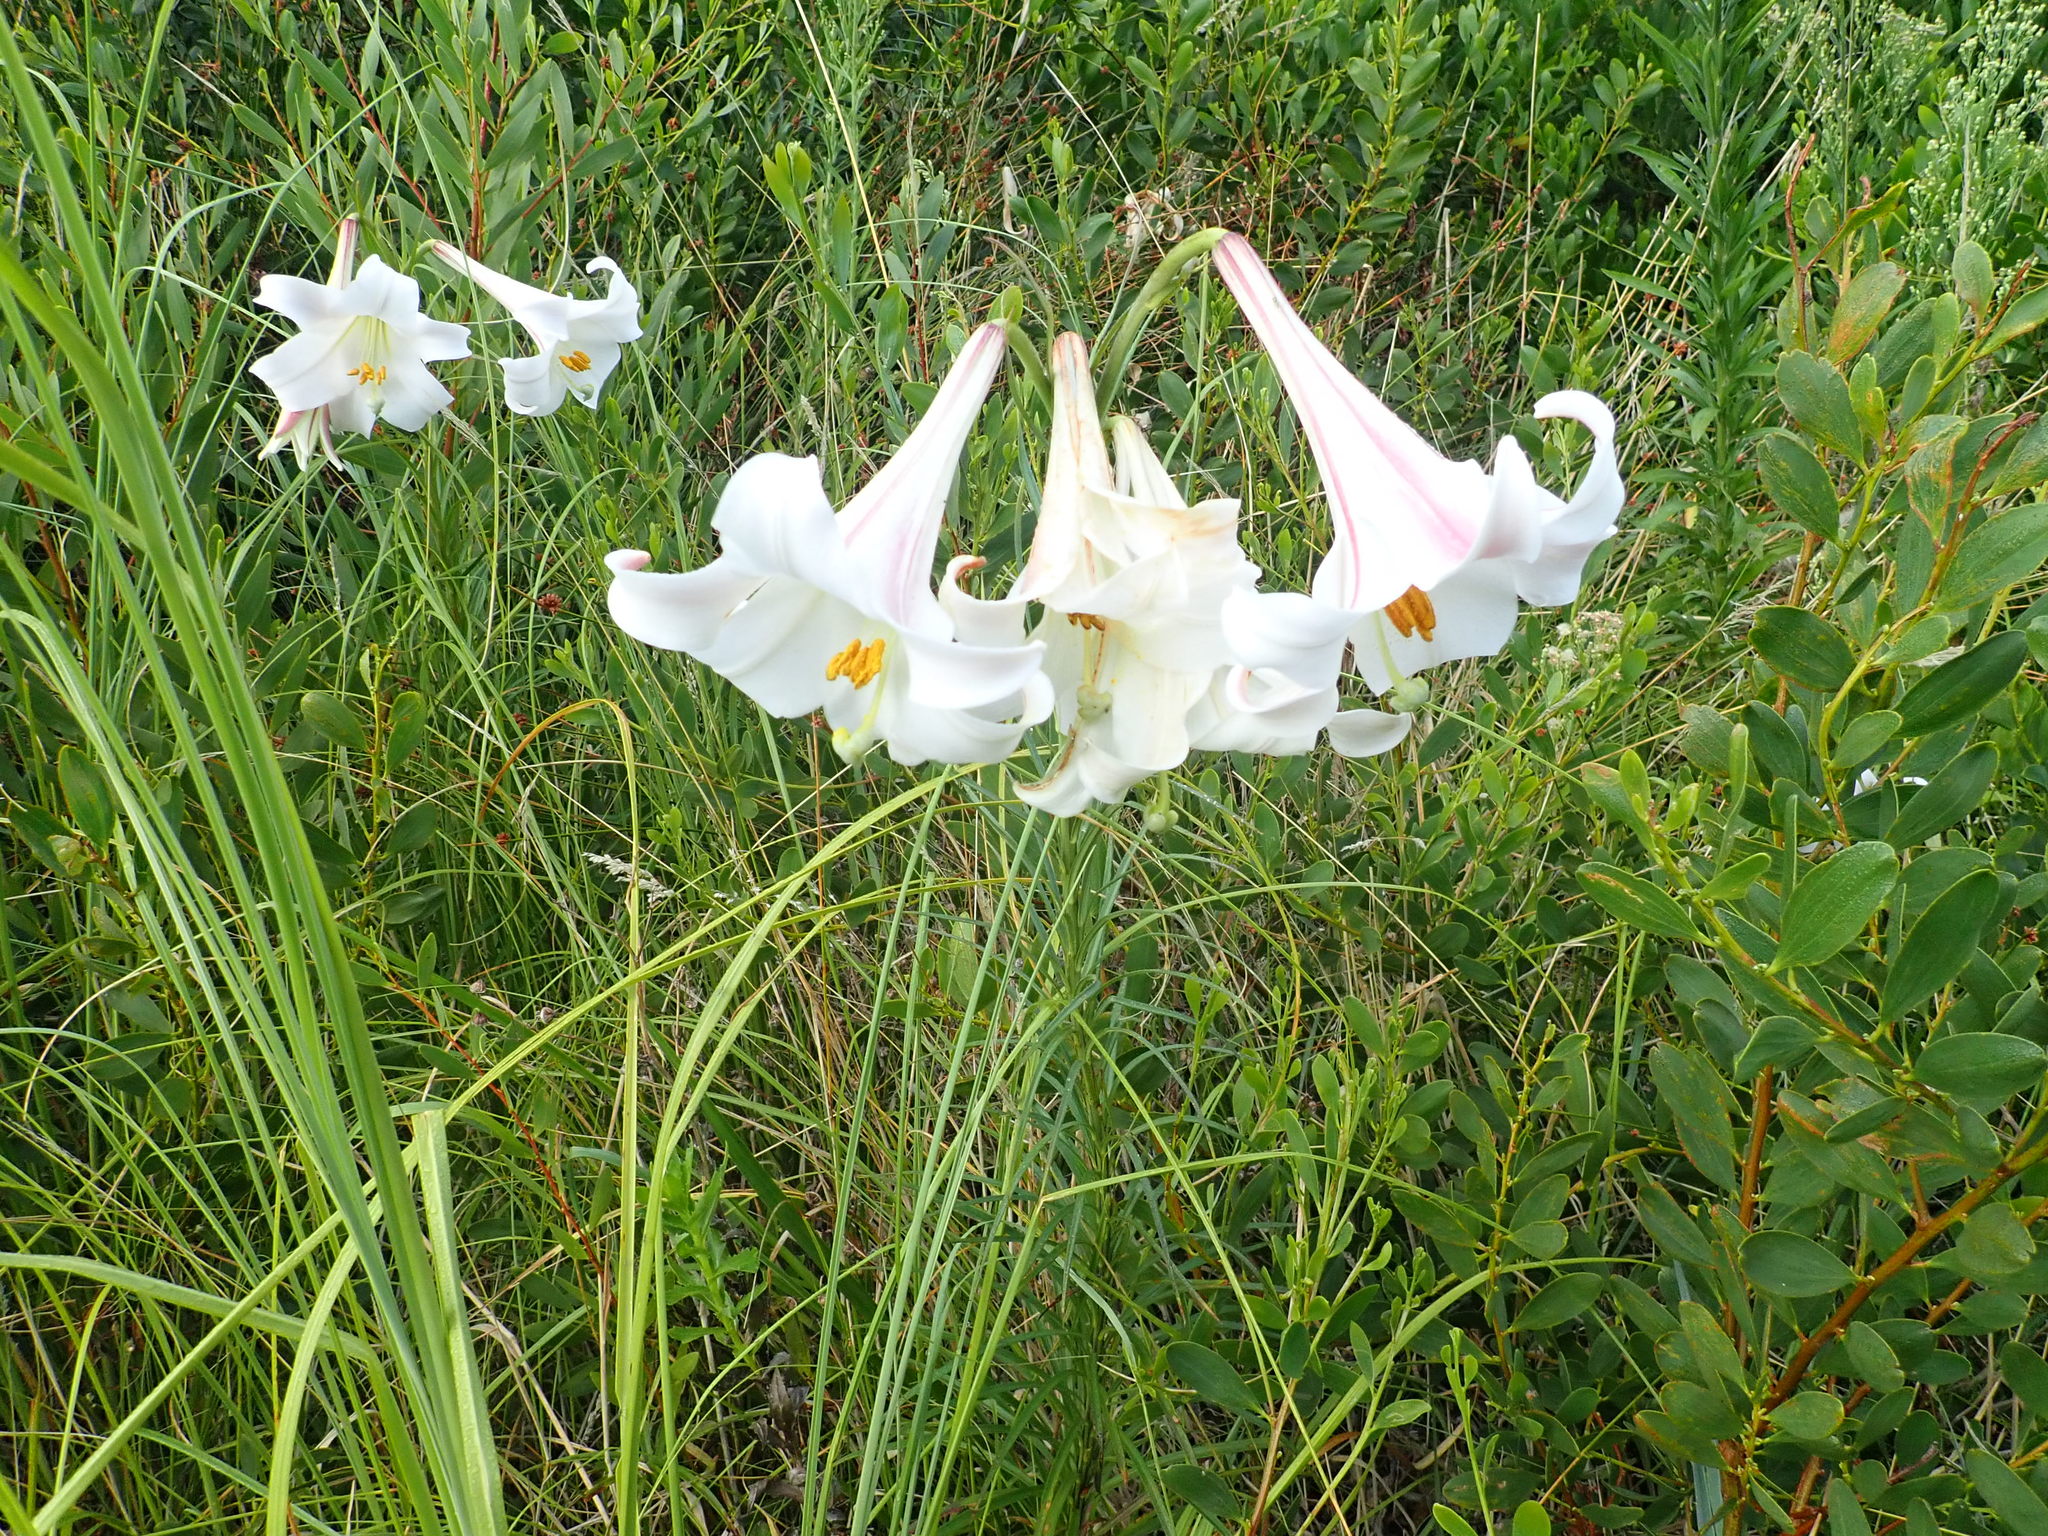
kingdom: Plantae
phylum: Tracheophyta
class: Liliopsida
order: Liliales
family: Liliaceae
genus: Lilium
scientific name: Lilium formosanum
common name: Formosa lily
